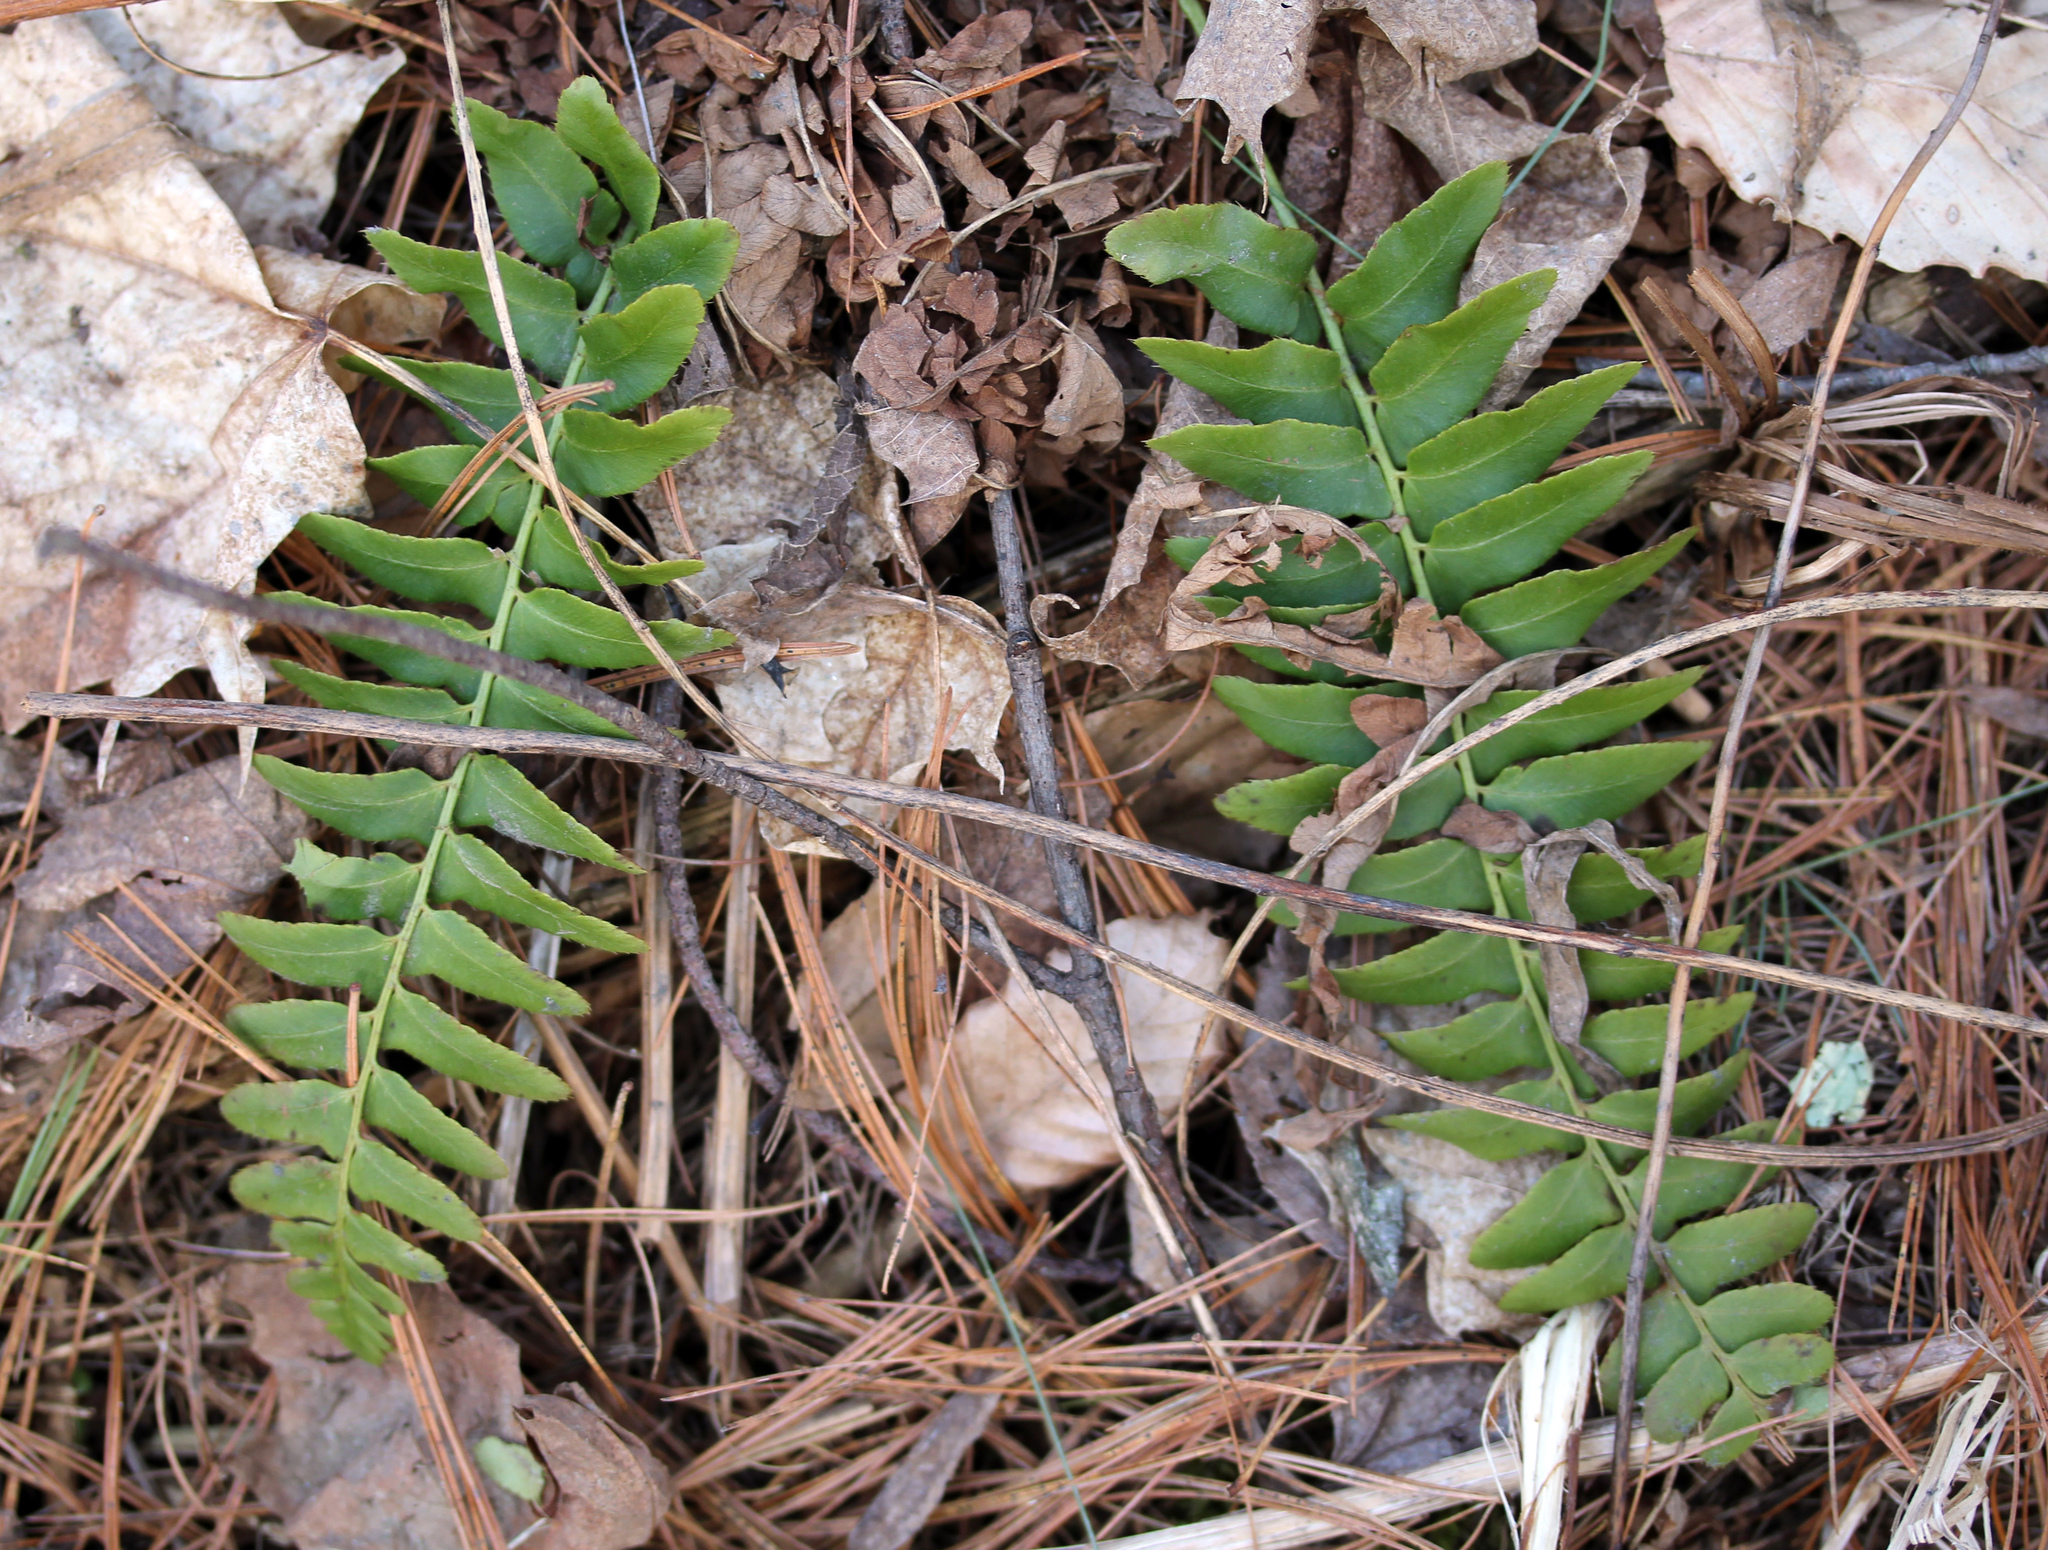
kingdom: Plantae
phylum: Tracheophyta
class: Polypodiopsida
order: Polypodiales
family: Dryopteridaceae
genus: Polystichum
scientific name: Polystichum acrostichoides
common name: Christmas fern
